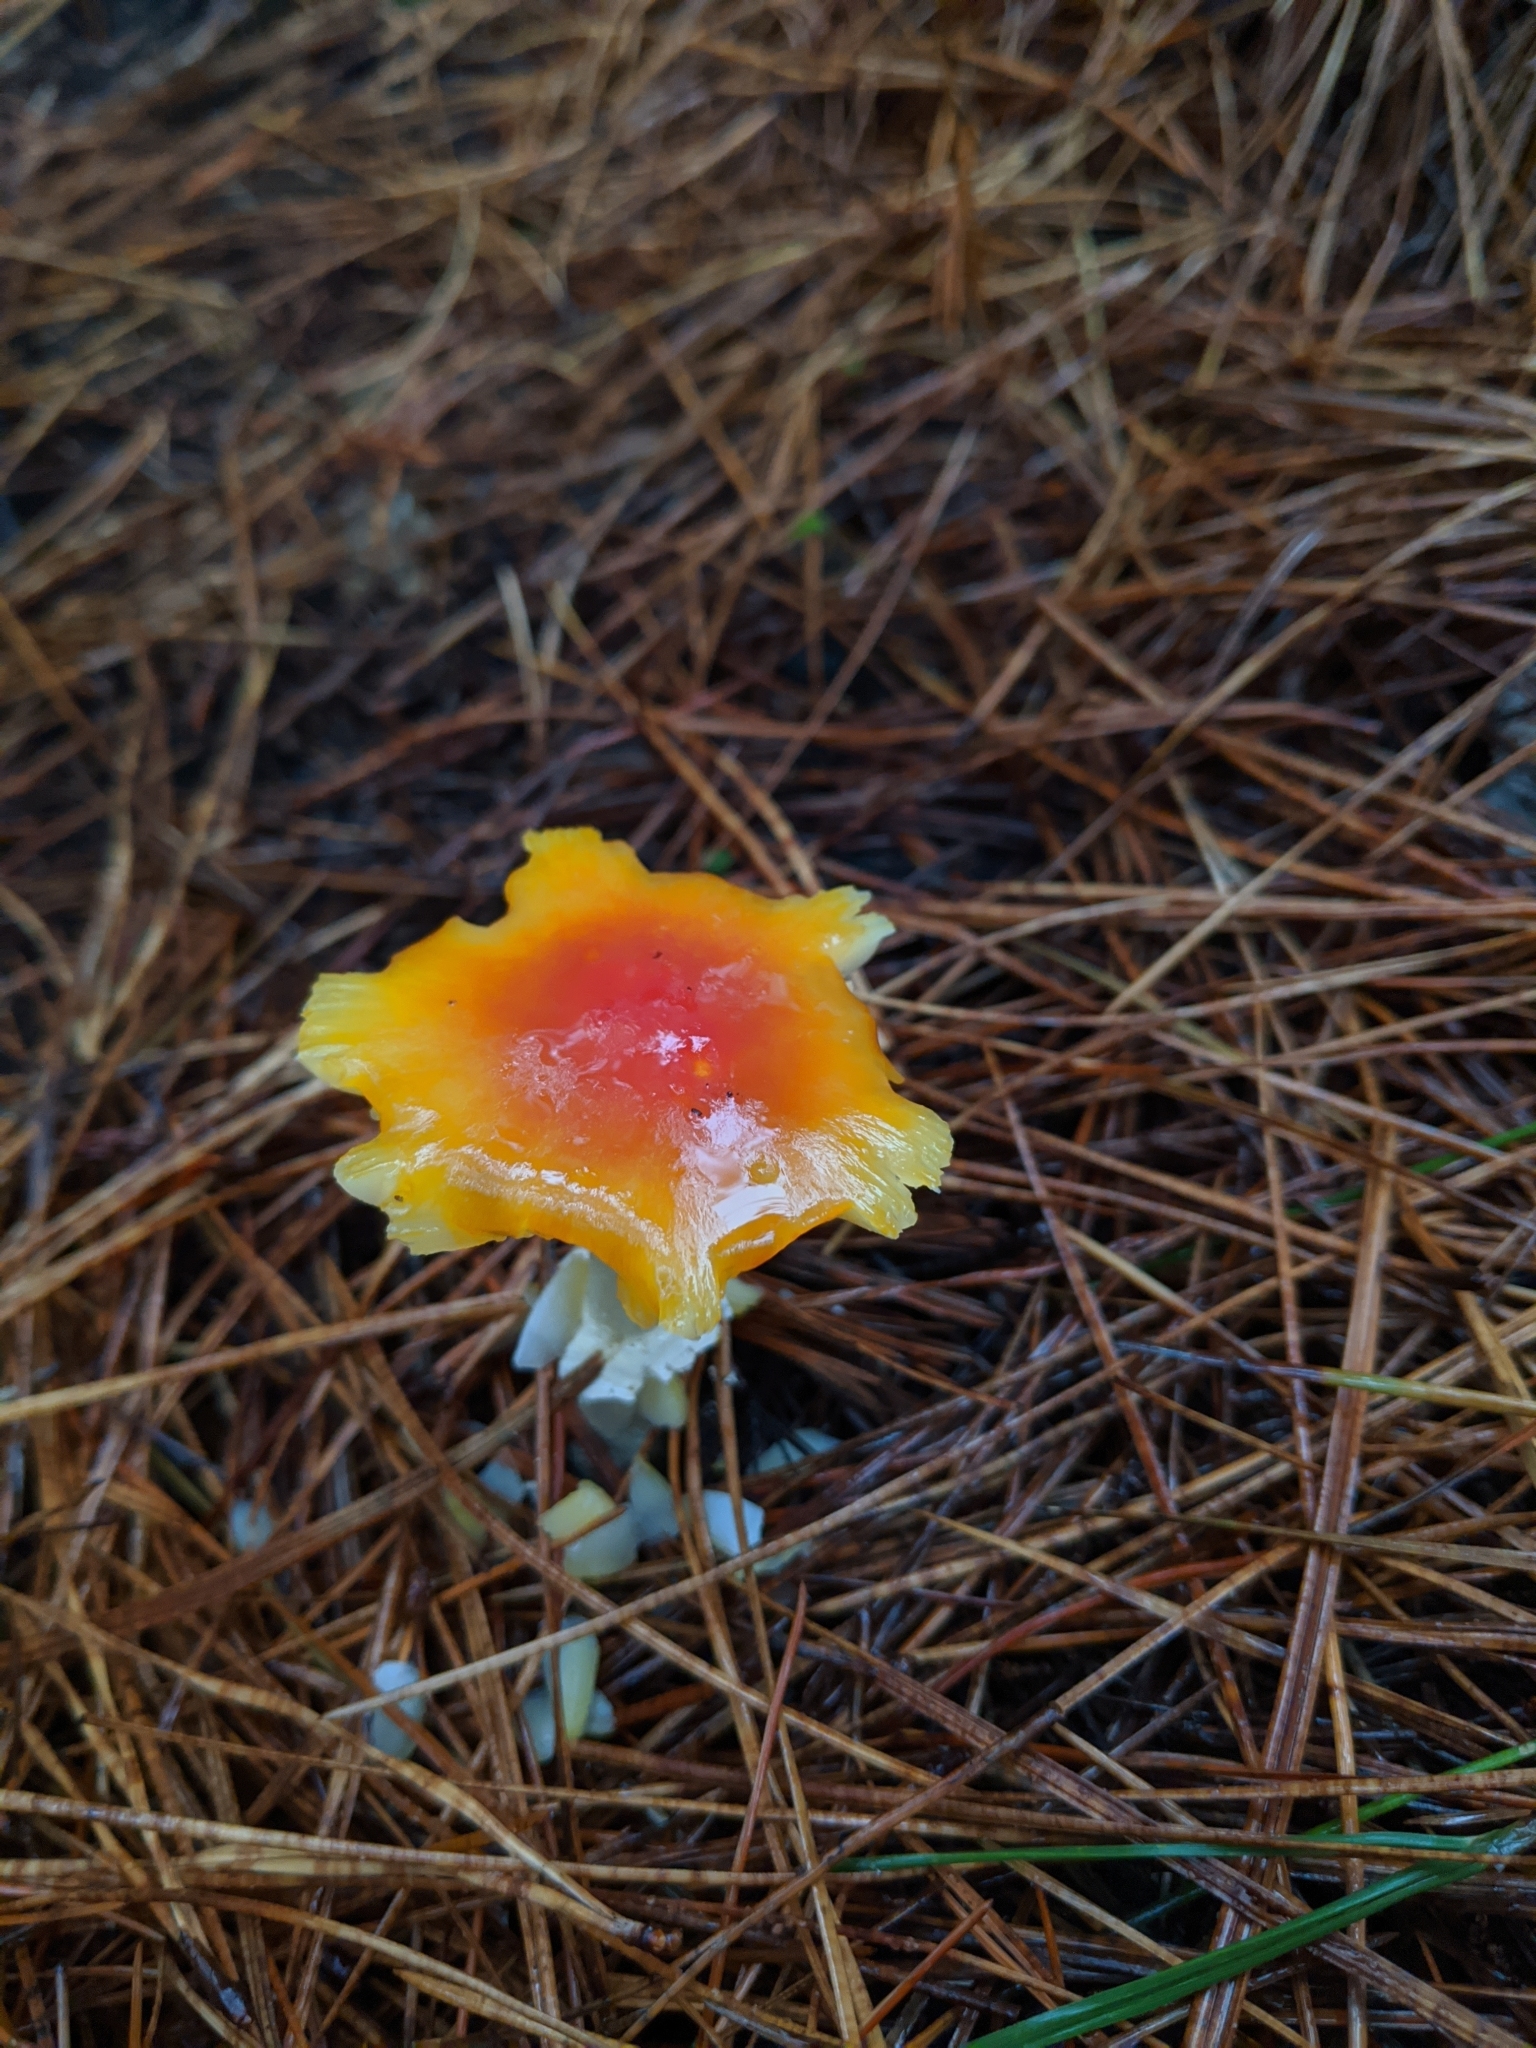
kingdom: Fungi
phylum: Basidiomycota
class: Agaricomycetes
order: Agaricales
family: Amanitaceae
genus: Amanita
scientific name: Amanita muscaria
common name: Fly agaric
